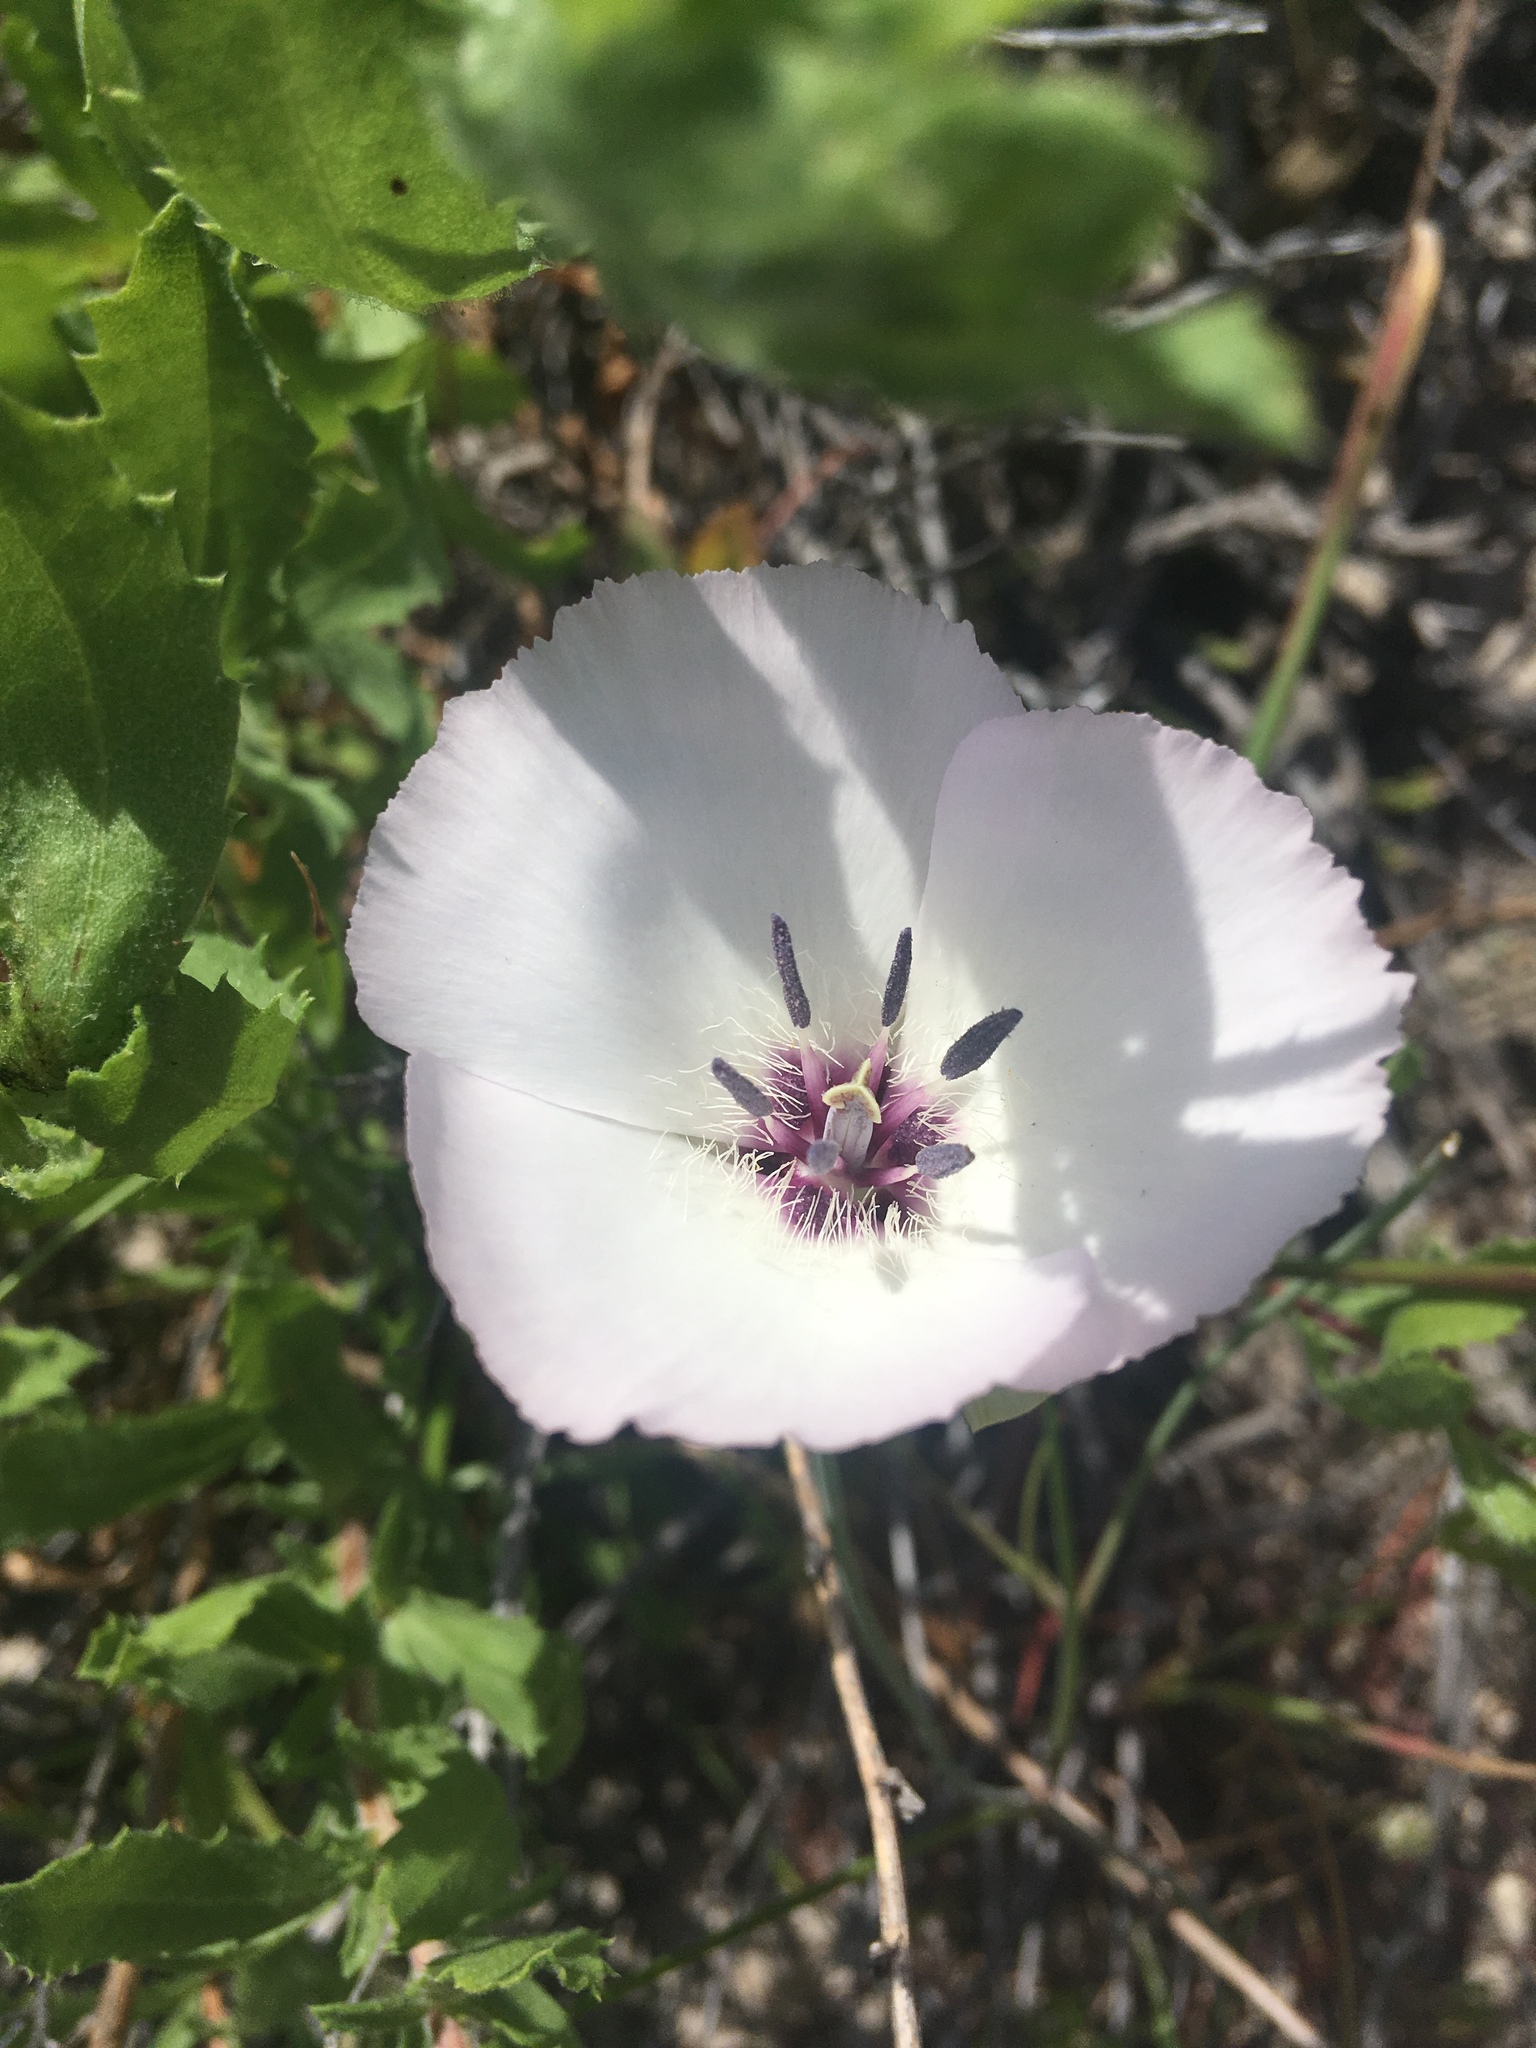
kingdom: Plantae
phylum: Tracheophyta
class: Liliopsida
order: Liliales
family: Liliaceae
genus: Calochortus
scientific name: Calochortus splendens
